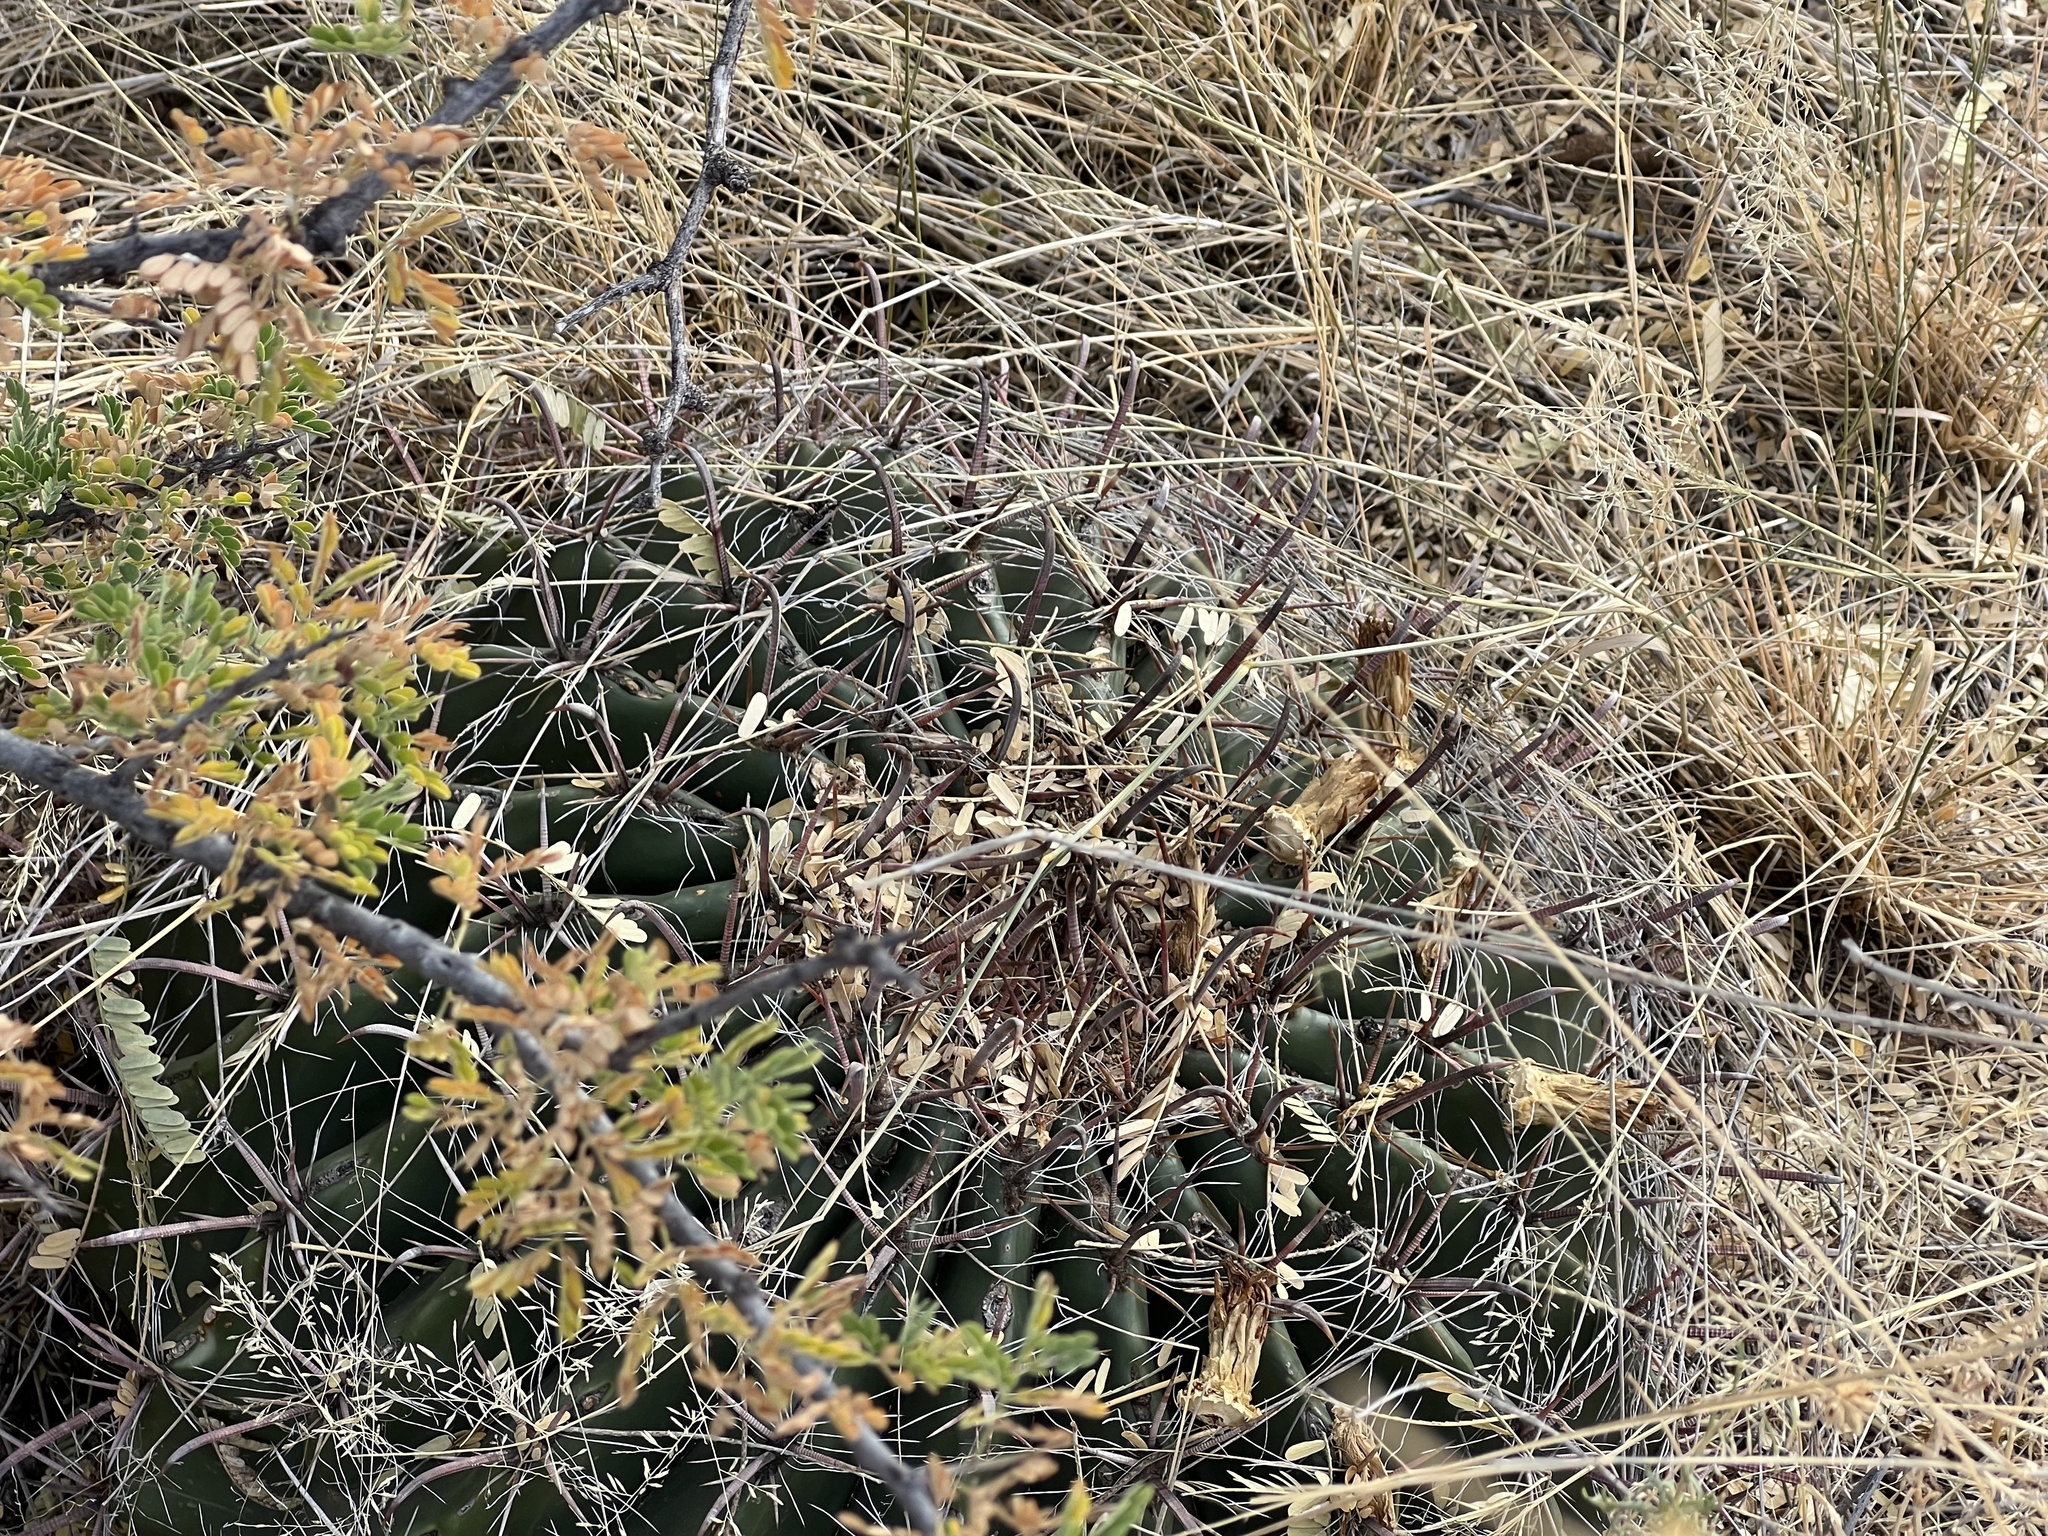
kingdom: Plantae
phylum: Tracheophyta
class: Magnoliopsida
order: Caryophyllales
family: Cactaceae
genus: Ferocactus
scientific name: Ferocactus wislizeni
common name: Candy barrel cactus
